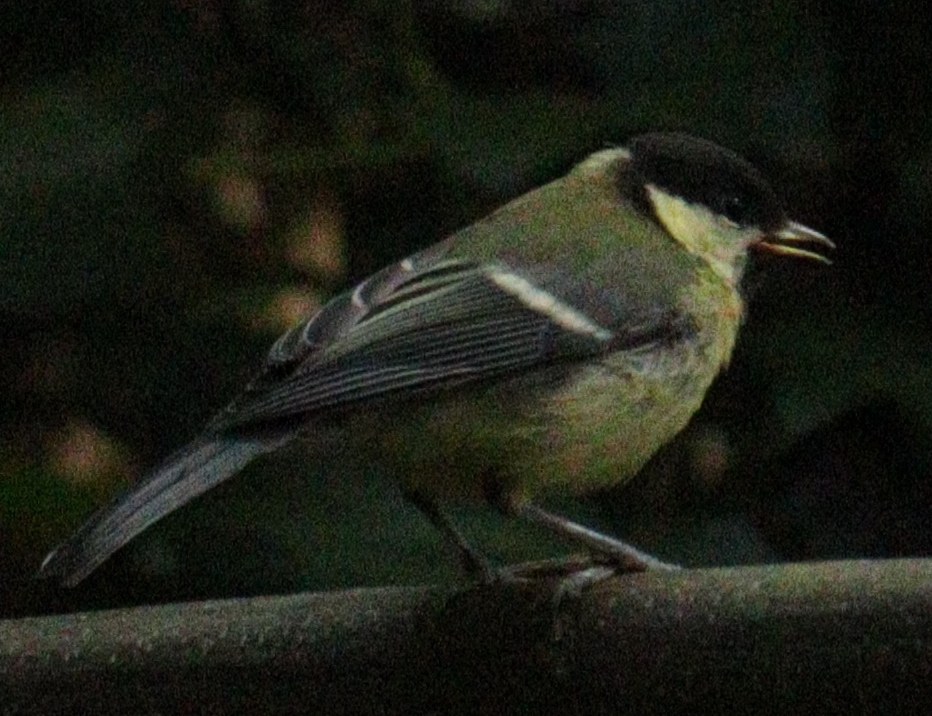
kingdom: Animalia
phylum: Chordata
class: Aves
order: Passeriformes
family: Paridae
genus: Parus
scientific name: Parus major
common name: Great tit
